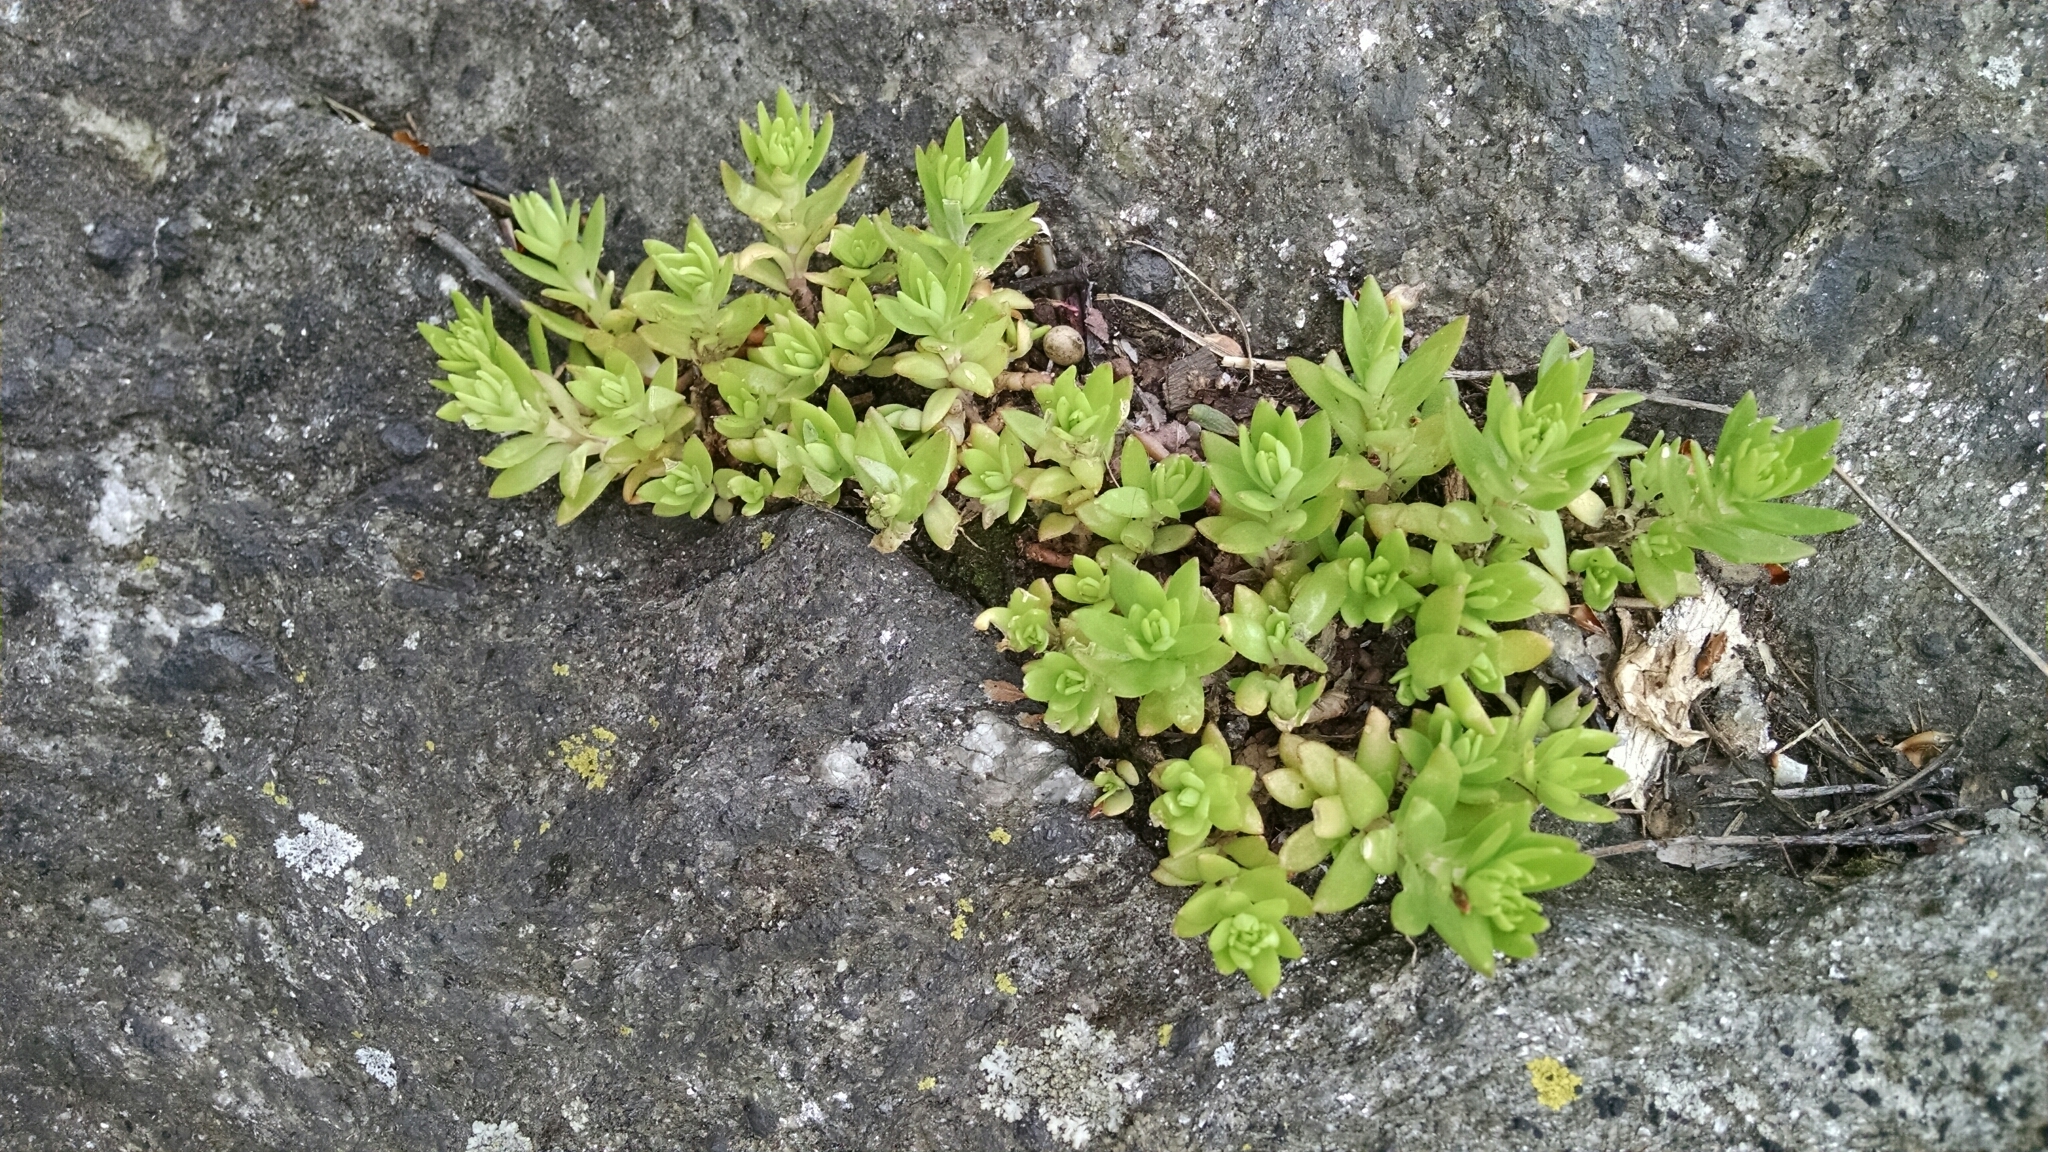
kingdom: Plantae
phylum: Tracheophyta
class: Magnoliopsida
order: Saxifragales
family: Crassulaceae
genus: Sedum
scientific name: Sedum sarmentosum
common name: Stringy stonecrop
